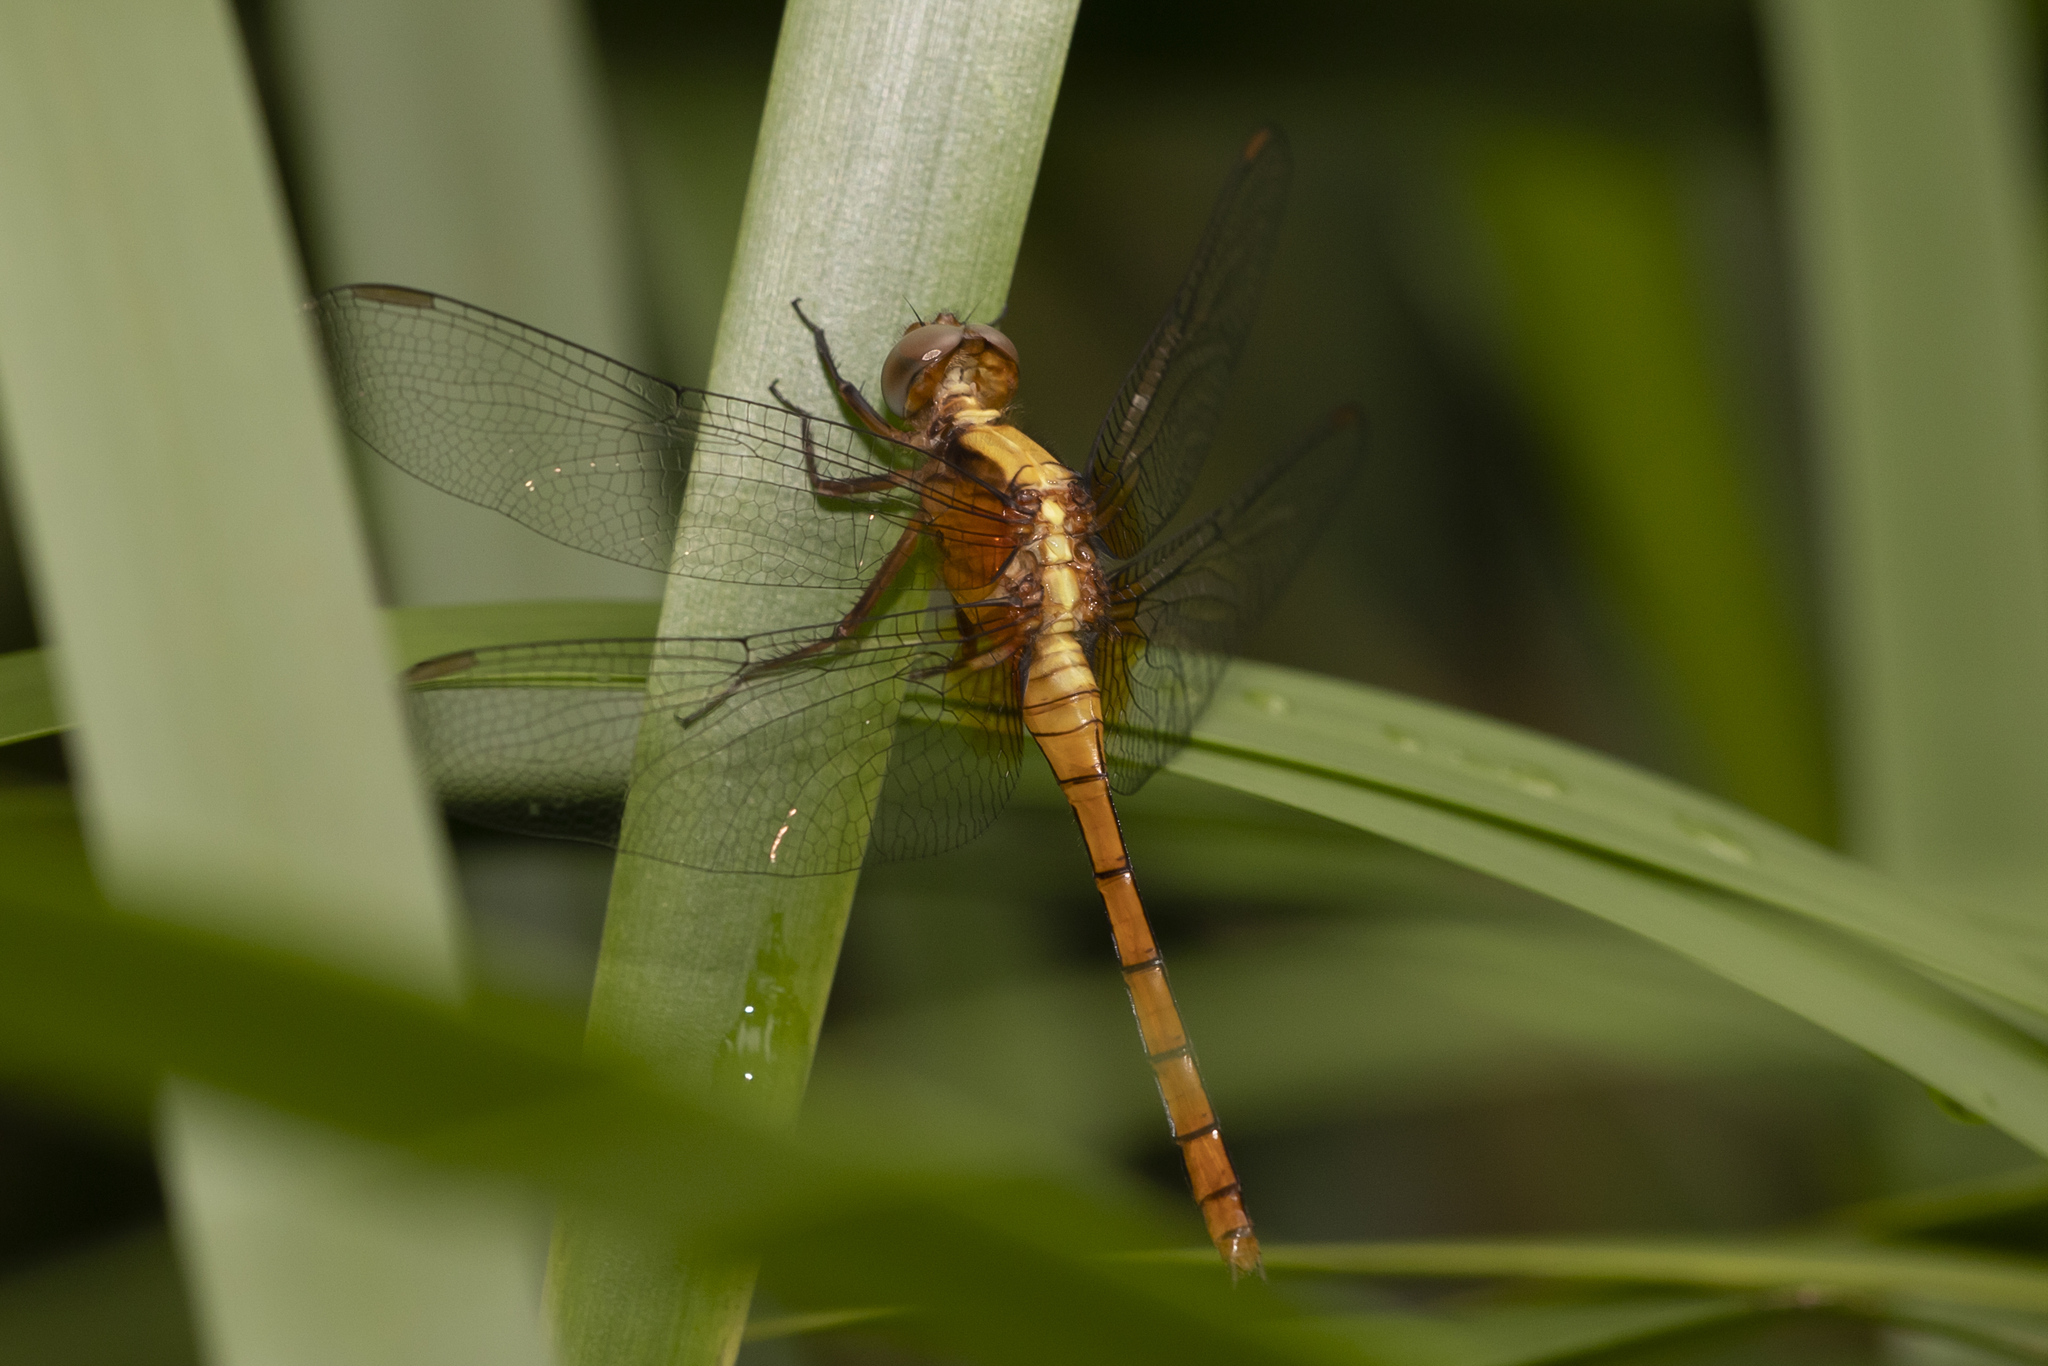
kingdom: Animalia
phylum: Arthropoda
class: Insecta
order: Odonata
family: Libellulidae
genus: Orthetrum
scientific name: Orthetrum villosovittatum
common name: Firery skimmer
